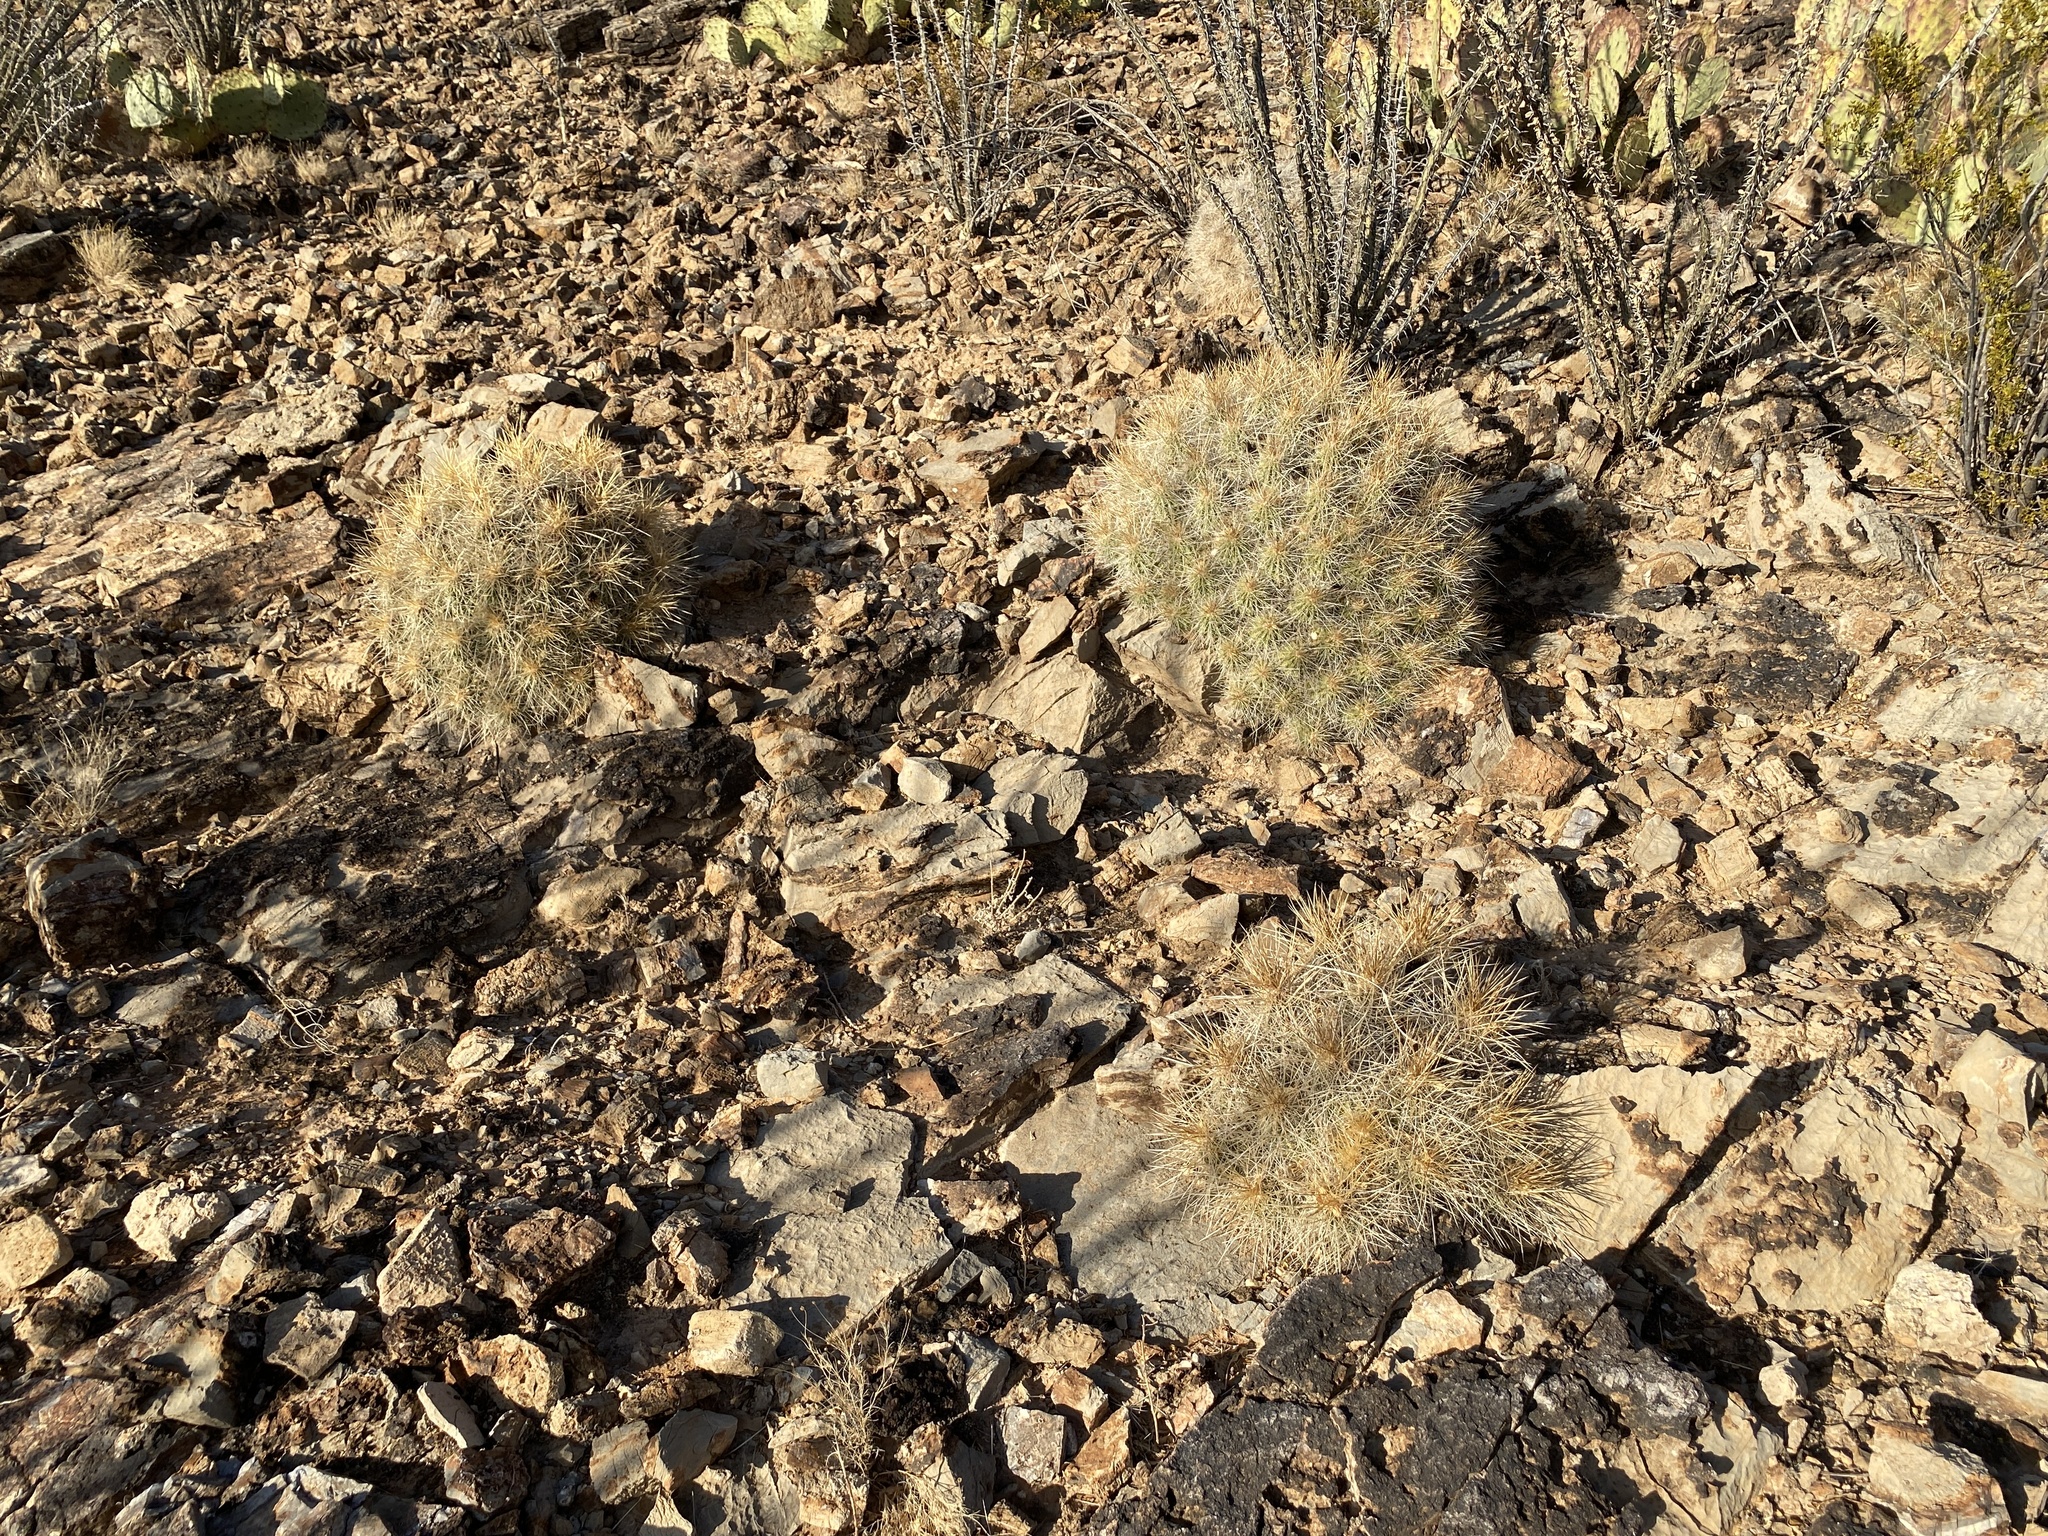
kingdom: Plantae
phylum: Tracheophyta
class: Magnoliopsida
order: Caryophyllales
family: Cactaceae
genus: Echinocereus
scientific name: Echinocereus stramineus
